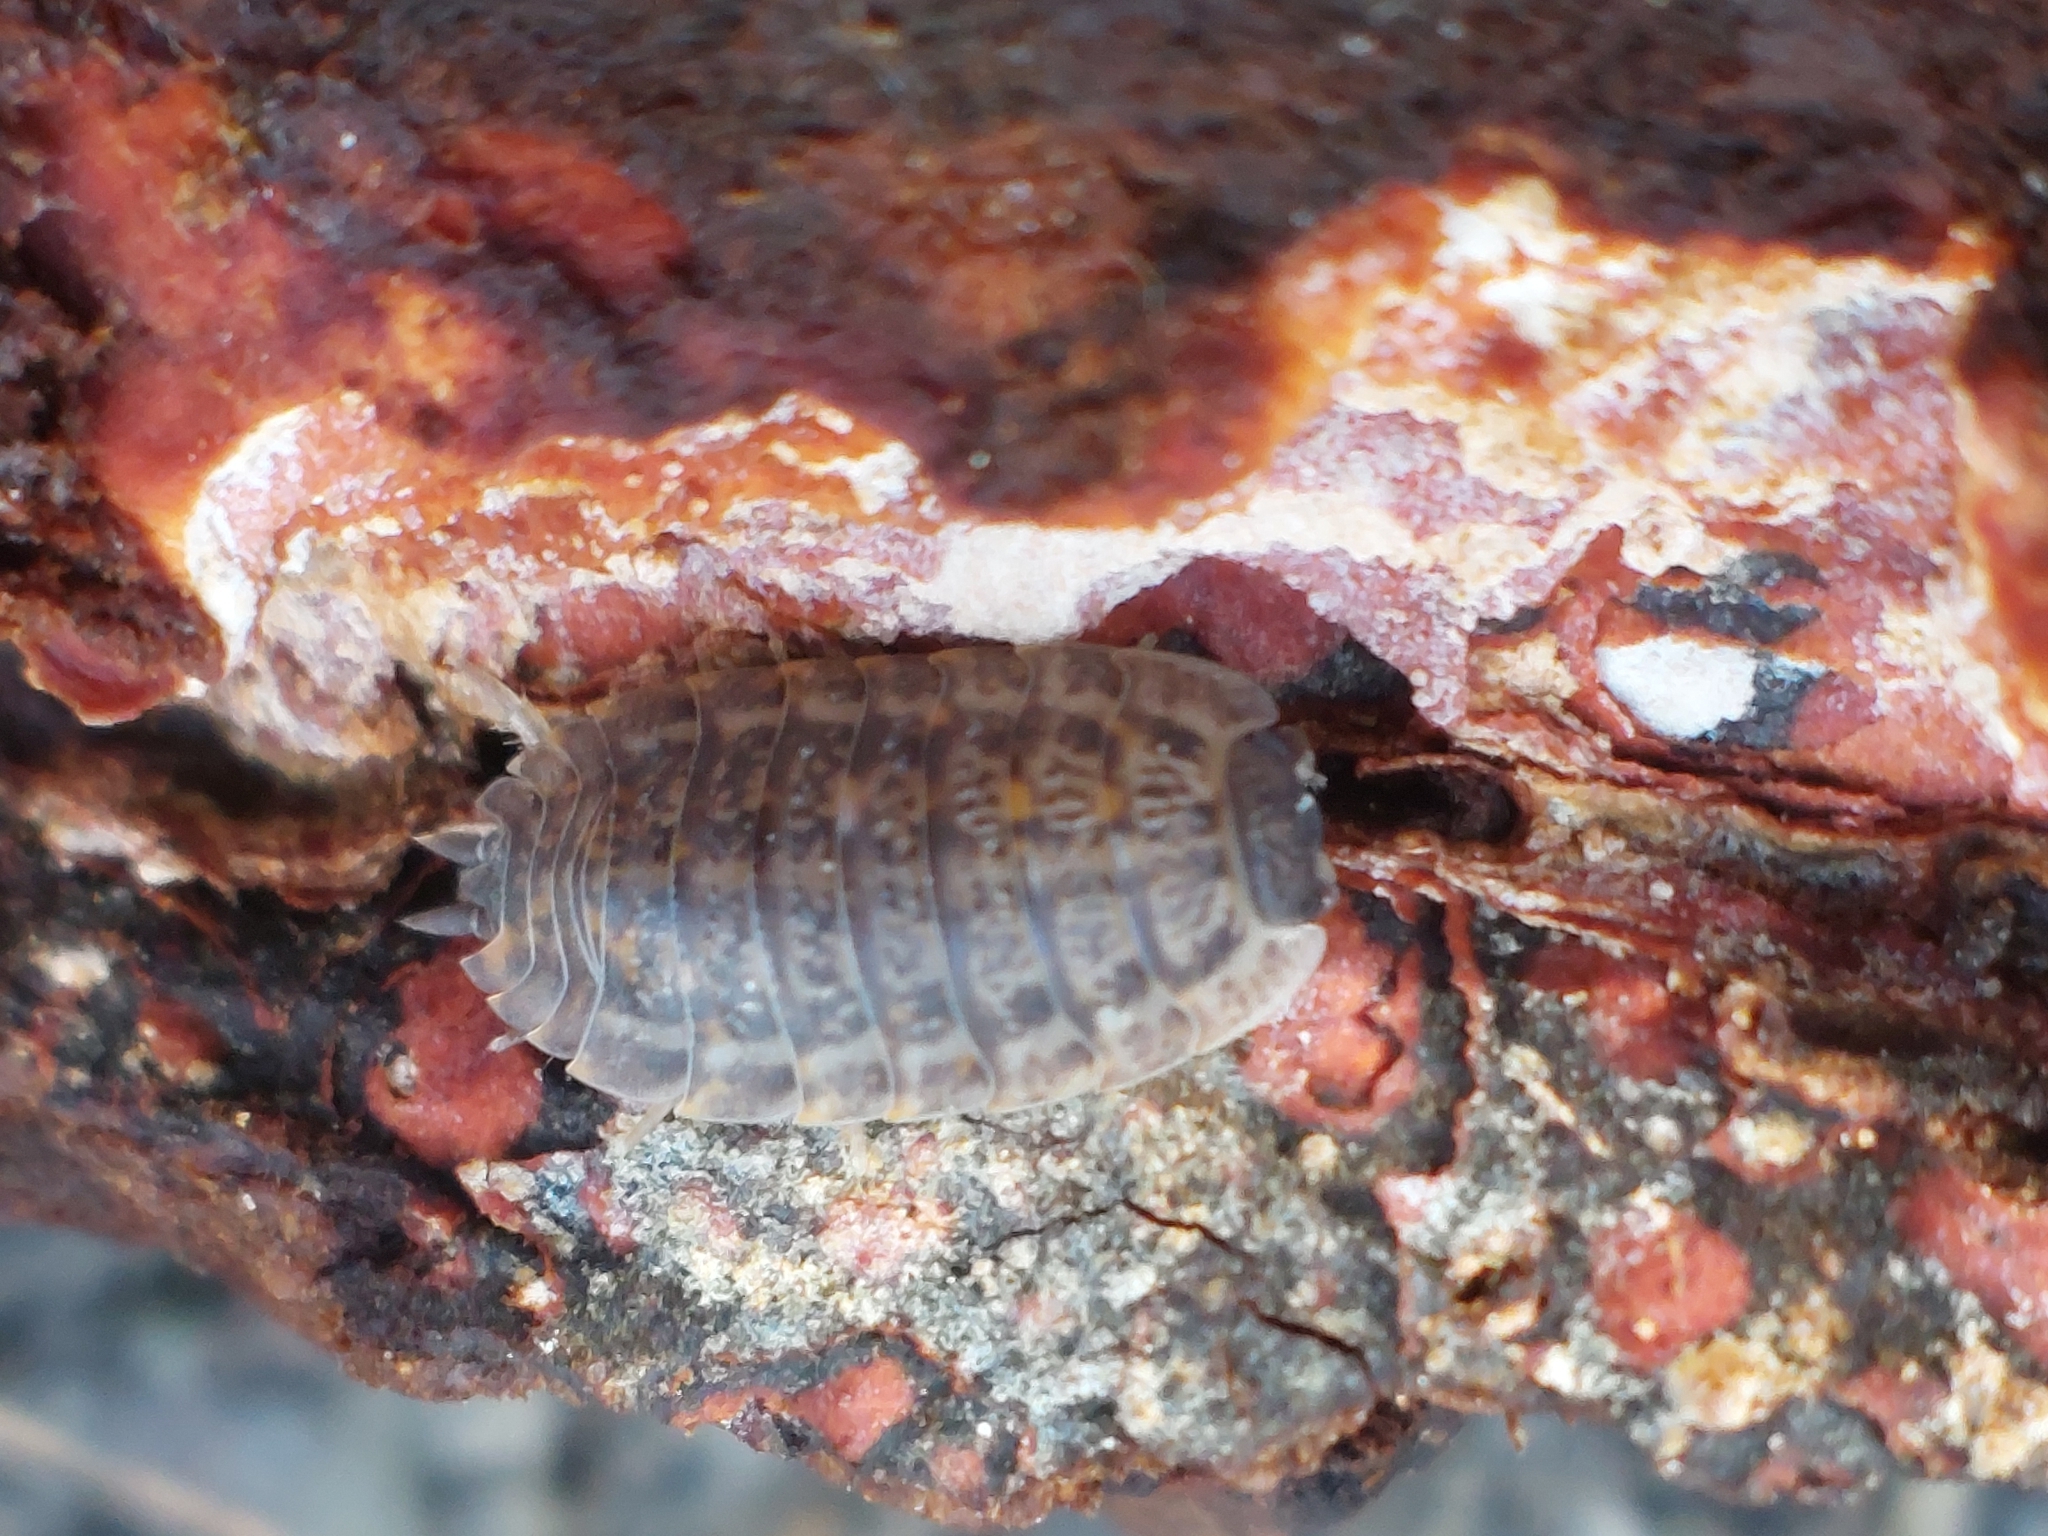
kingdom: Animalia
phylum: Arthropoda
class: Malacostraca
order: Isopoda
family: Trachelipodidae
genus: Trachelipus
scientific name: Trachelipus rathkii
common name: Isopod
